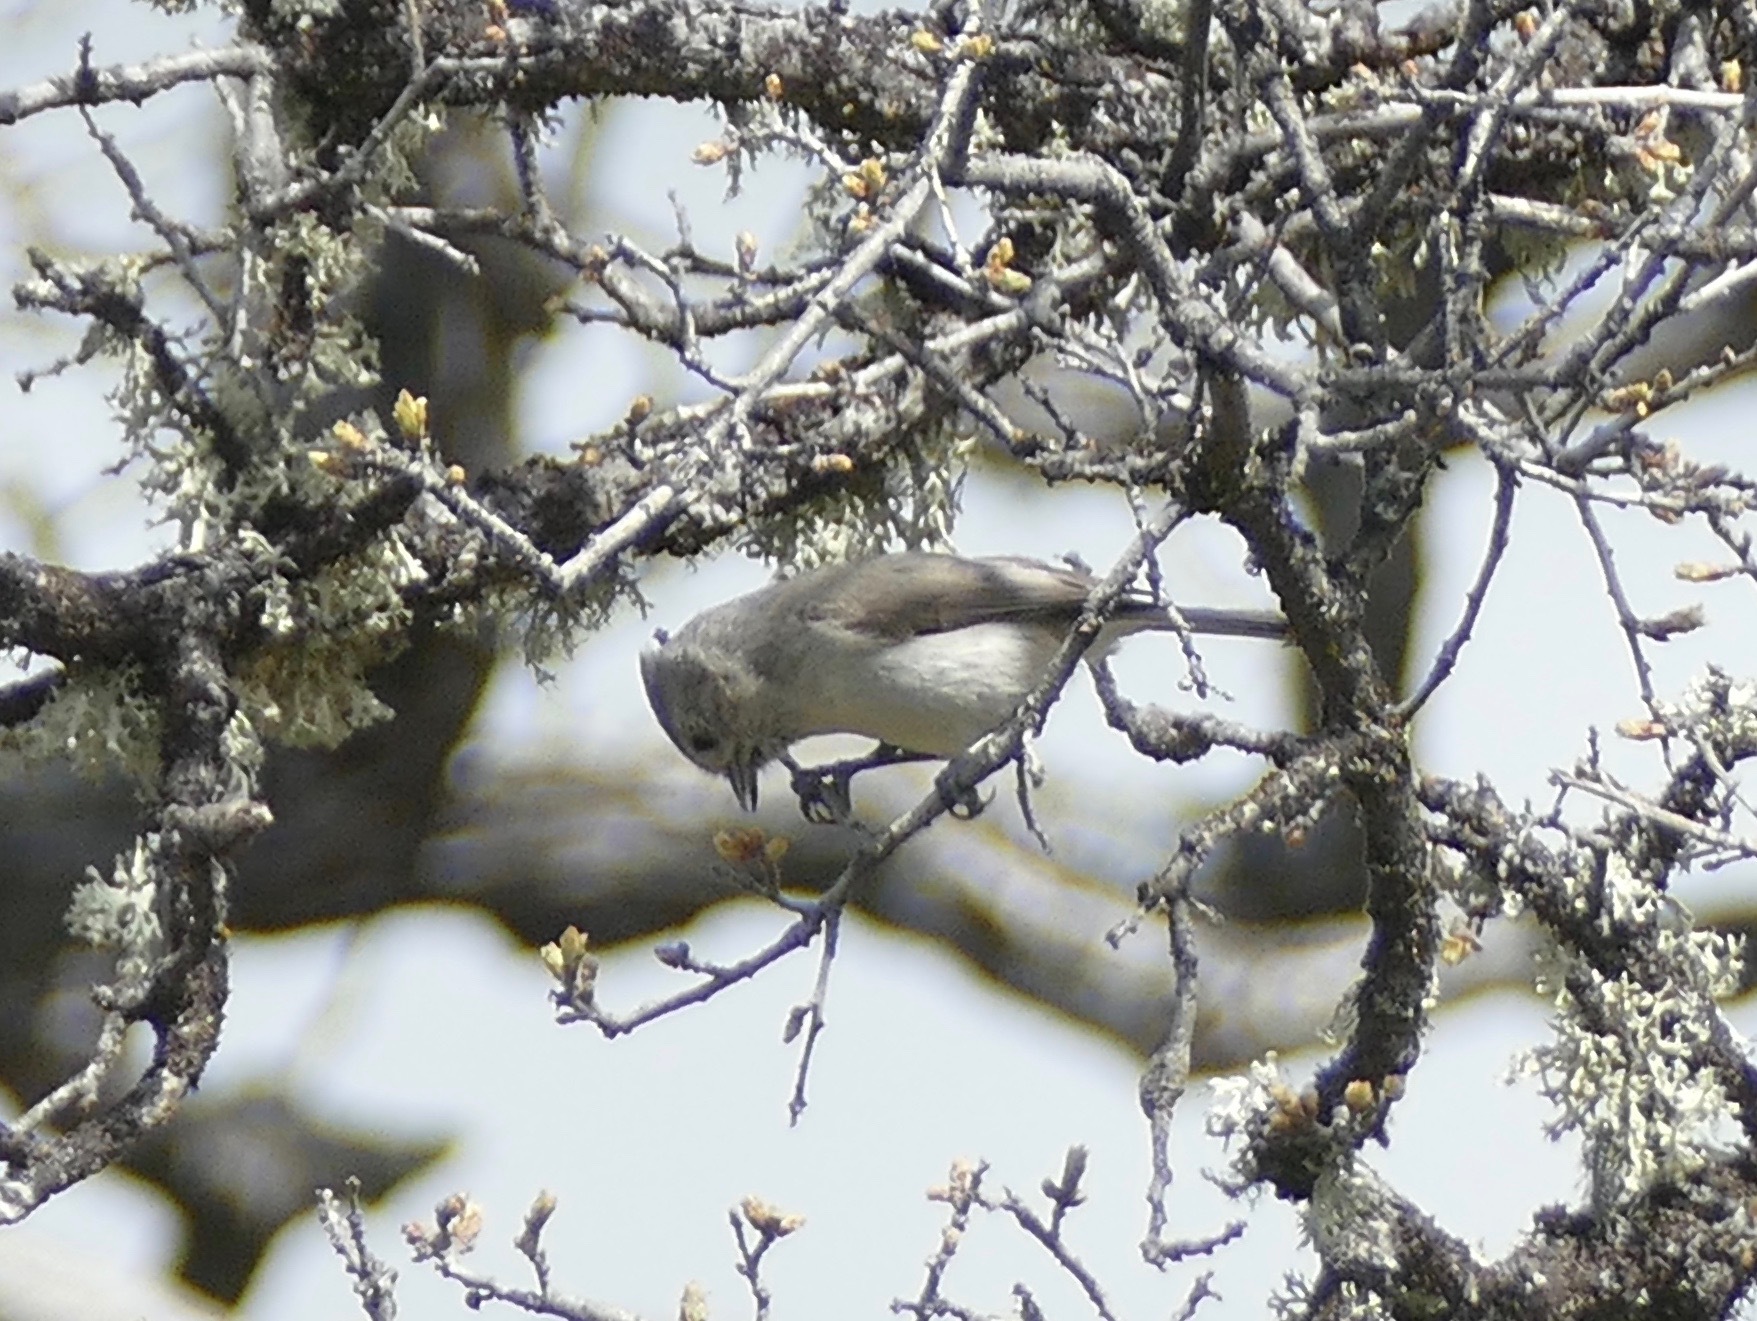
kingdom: Animalia
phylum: Chordata
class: Aves
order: Passeriformes
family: Paridae
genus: Baeolophus
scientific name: Baeolophus inornatus
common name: Oak titmouse
